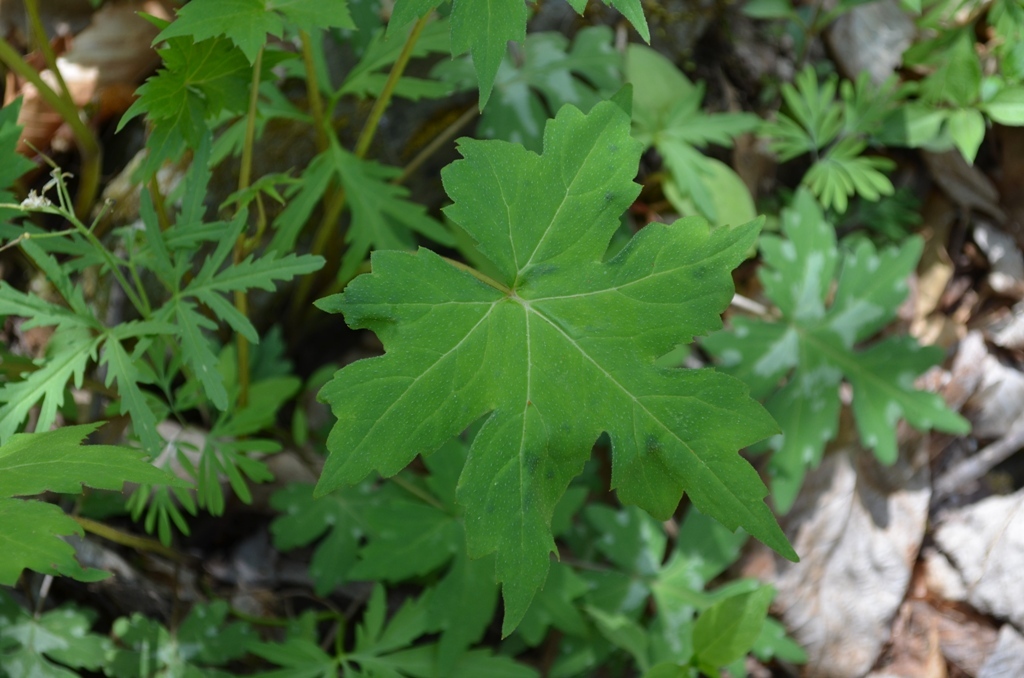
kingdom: Plantae
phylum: Tracheophyta
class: Magnoliopsida
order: Boraginales
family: Hydrophyllaceae
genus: Hydrophyllum
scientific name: Hydrophyllum canadense
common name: Canada waterleaf
